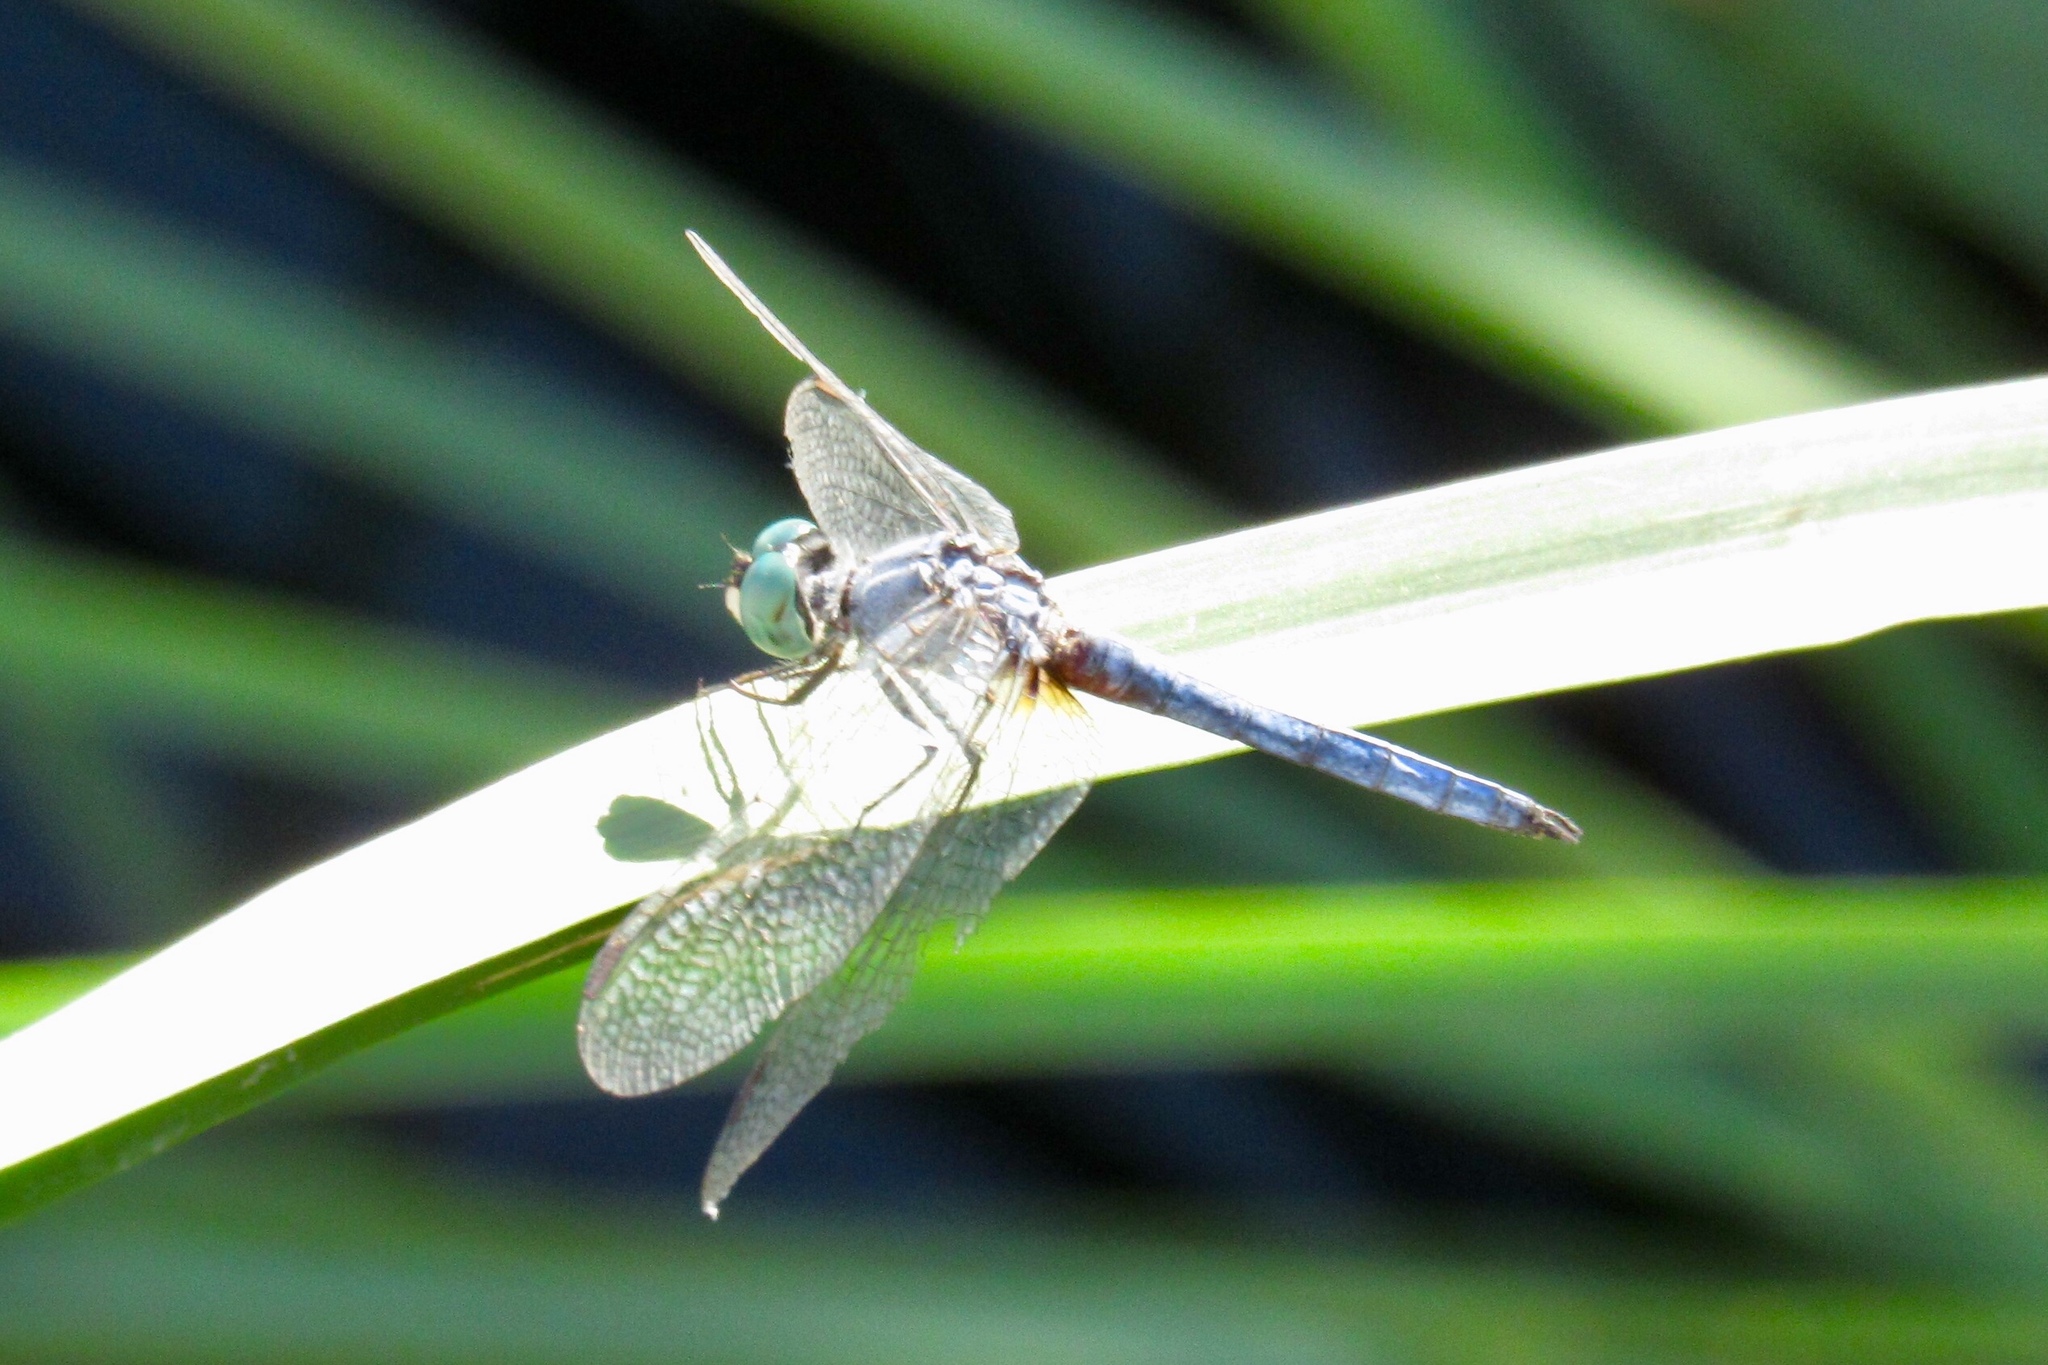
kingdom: Animalia
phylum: Arthropoda
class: Insecta
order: Odonata
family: Libellulidae
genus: Pachydiplax
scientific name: Pachydiplax longipennis
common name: Blue dasher
